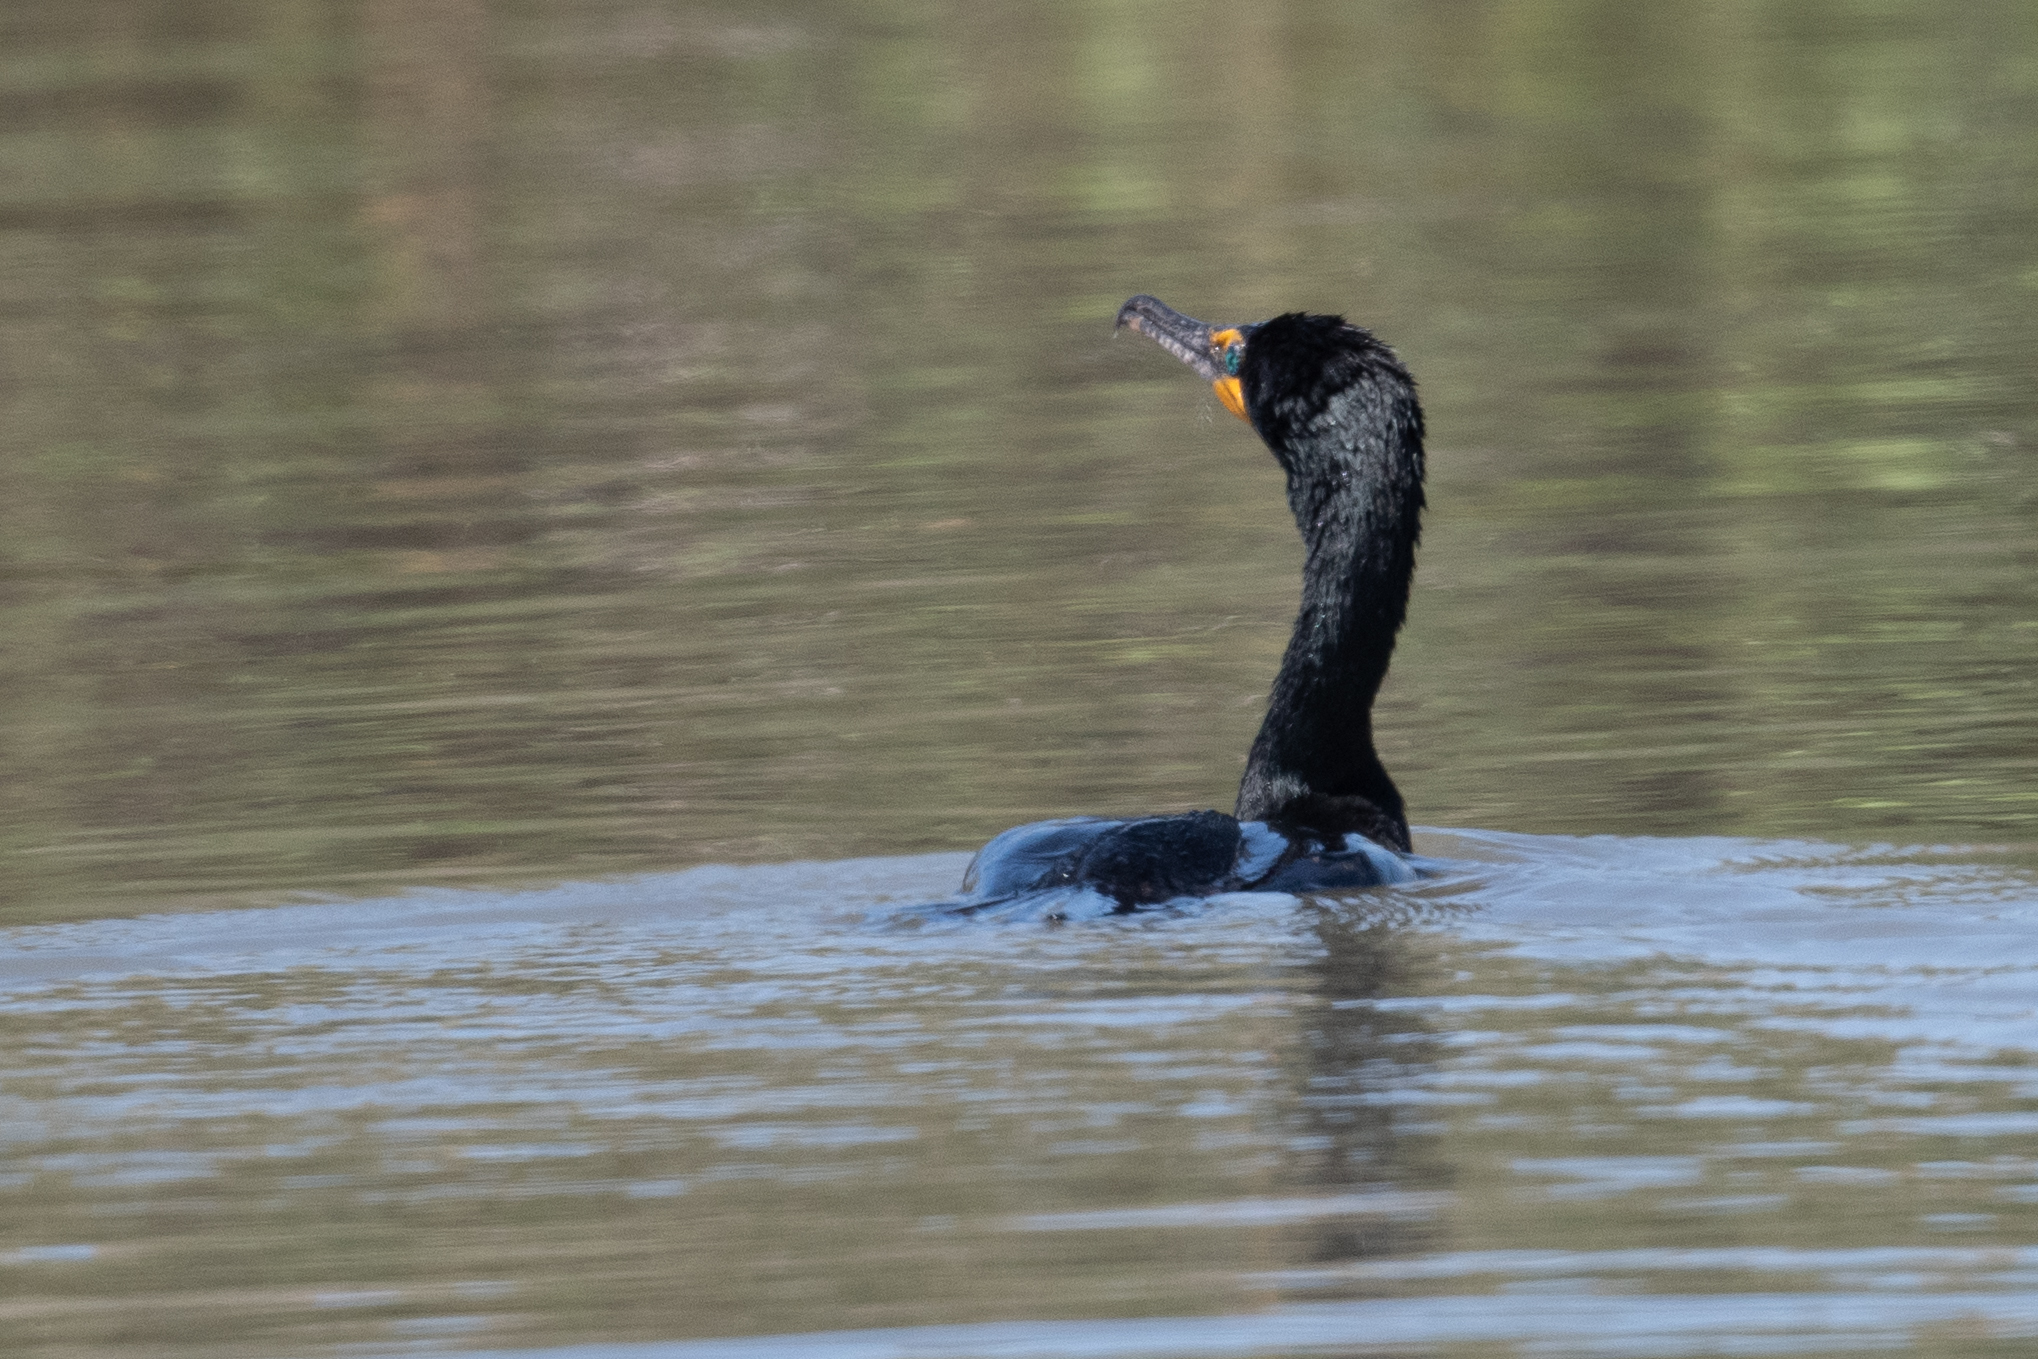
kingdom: Animalia
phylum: Chordata
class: Aves
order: Suliformes
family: Phalacrocoracidae
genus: Phalacrocorax
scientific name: Phalacrocorax auritus
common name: Double-crested cormorant
